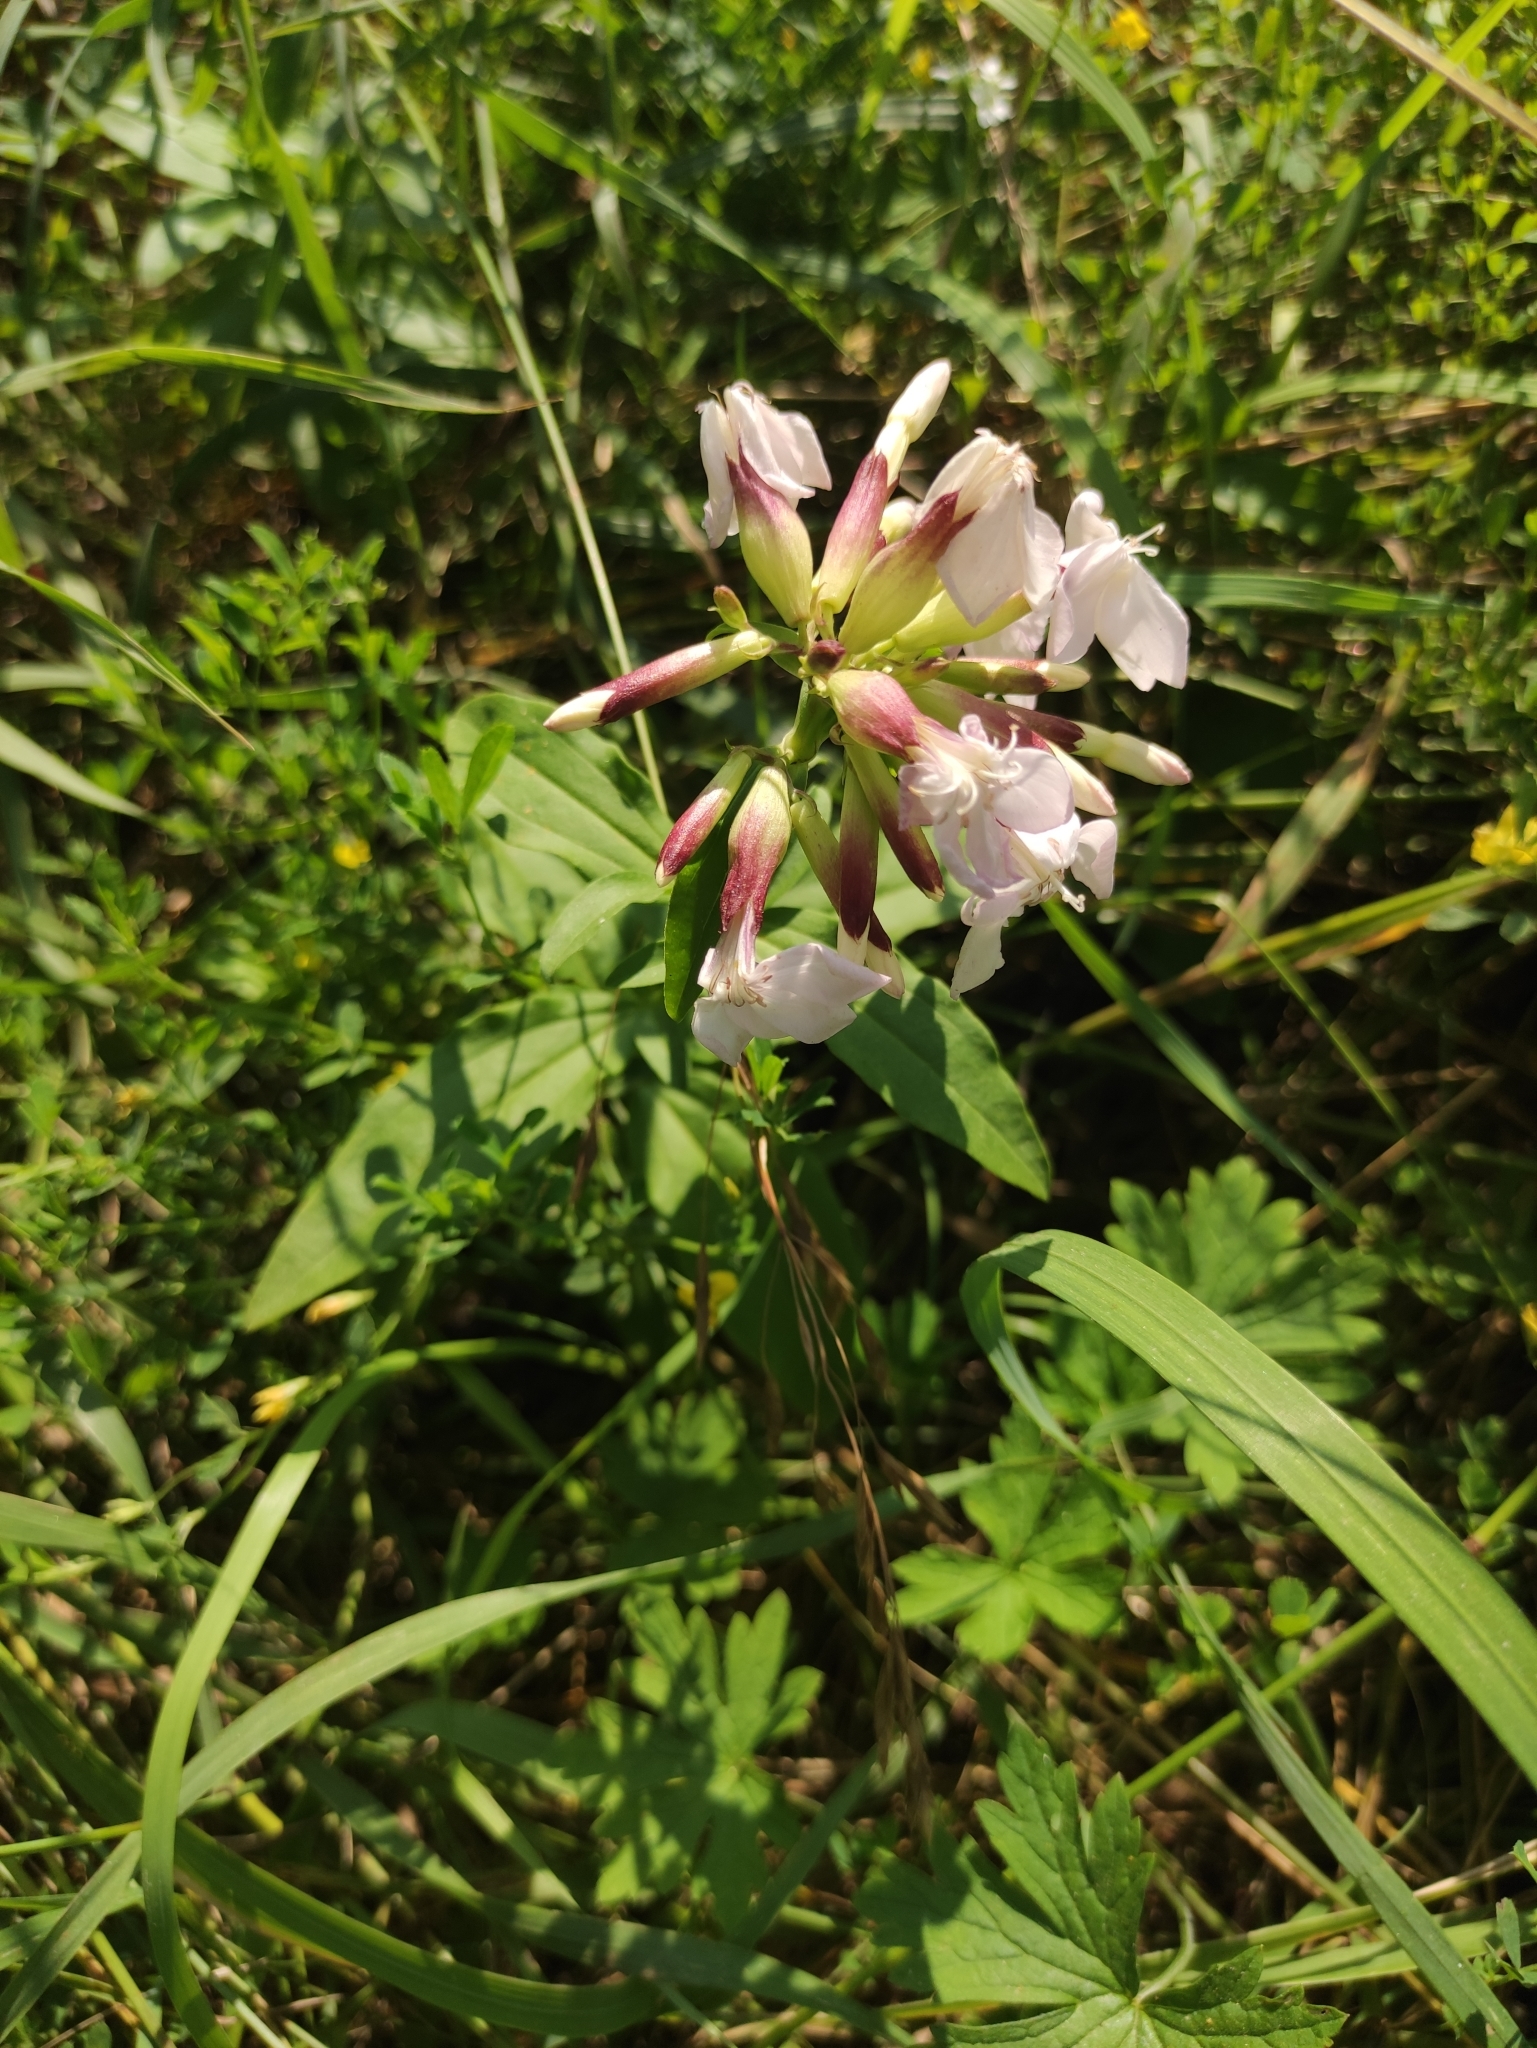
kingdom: Plantae
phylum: Tracheophyta
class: Magnoliopsida
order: Caryophyllales
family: Caryophyllaceae
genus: Saponaria
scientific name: Saponaria officinalis
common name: Soapwort
